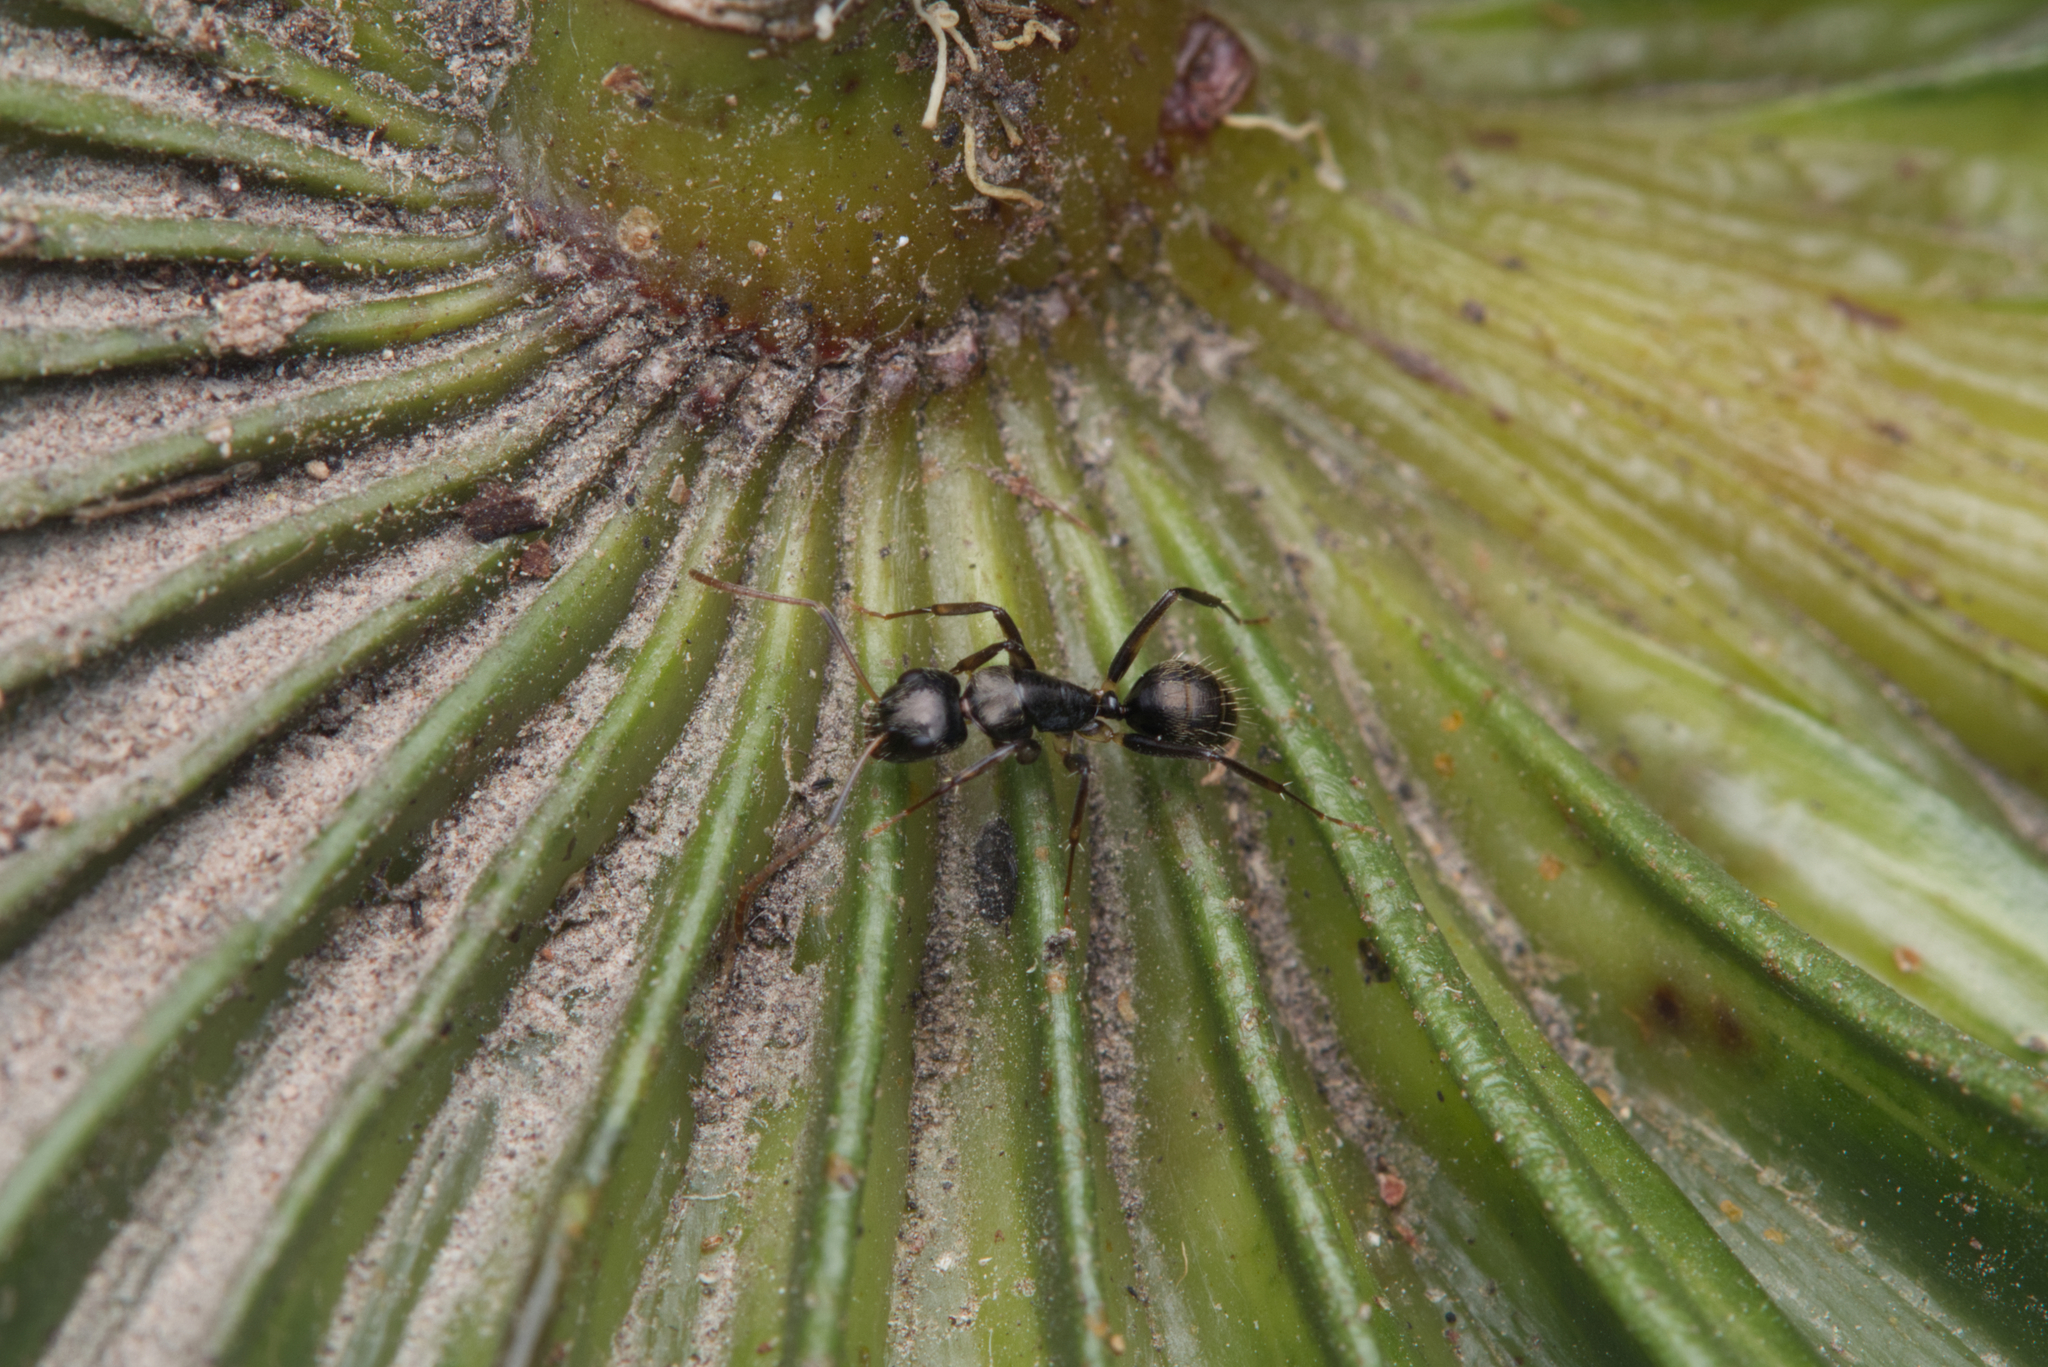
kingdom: Animalia
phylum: Arthropoda
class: Insecta
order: Hymenoptera
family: Formicidae
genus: Camponotus
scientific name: Camponotus froggatti
